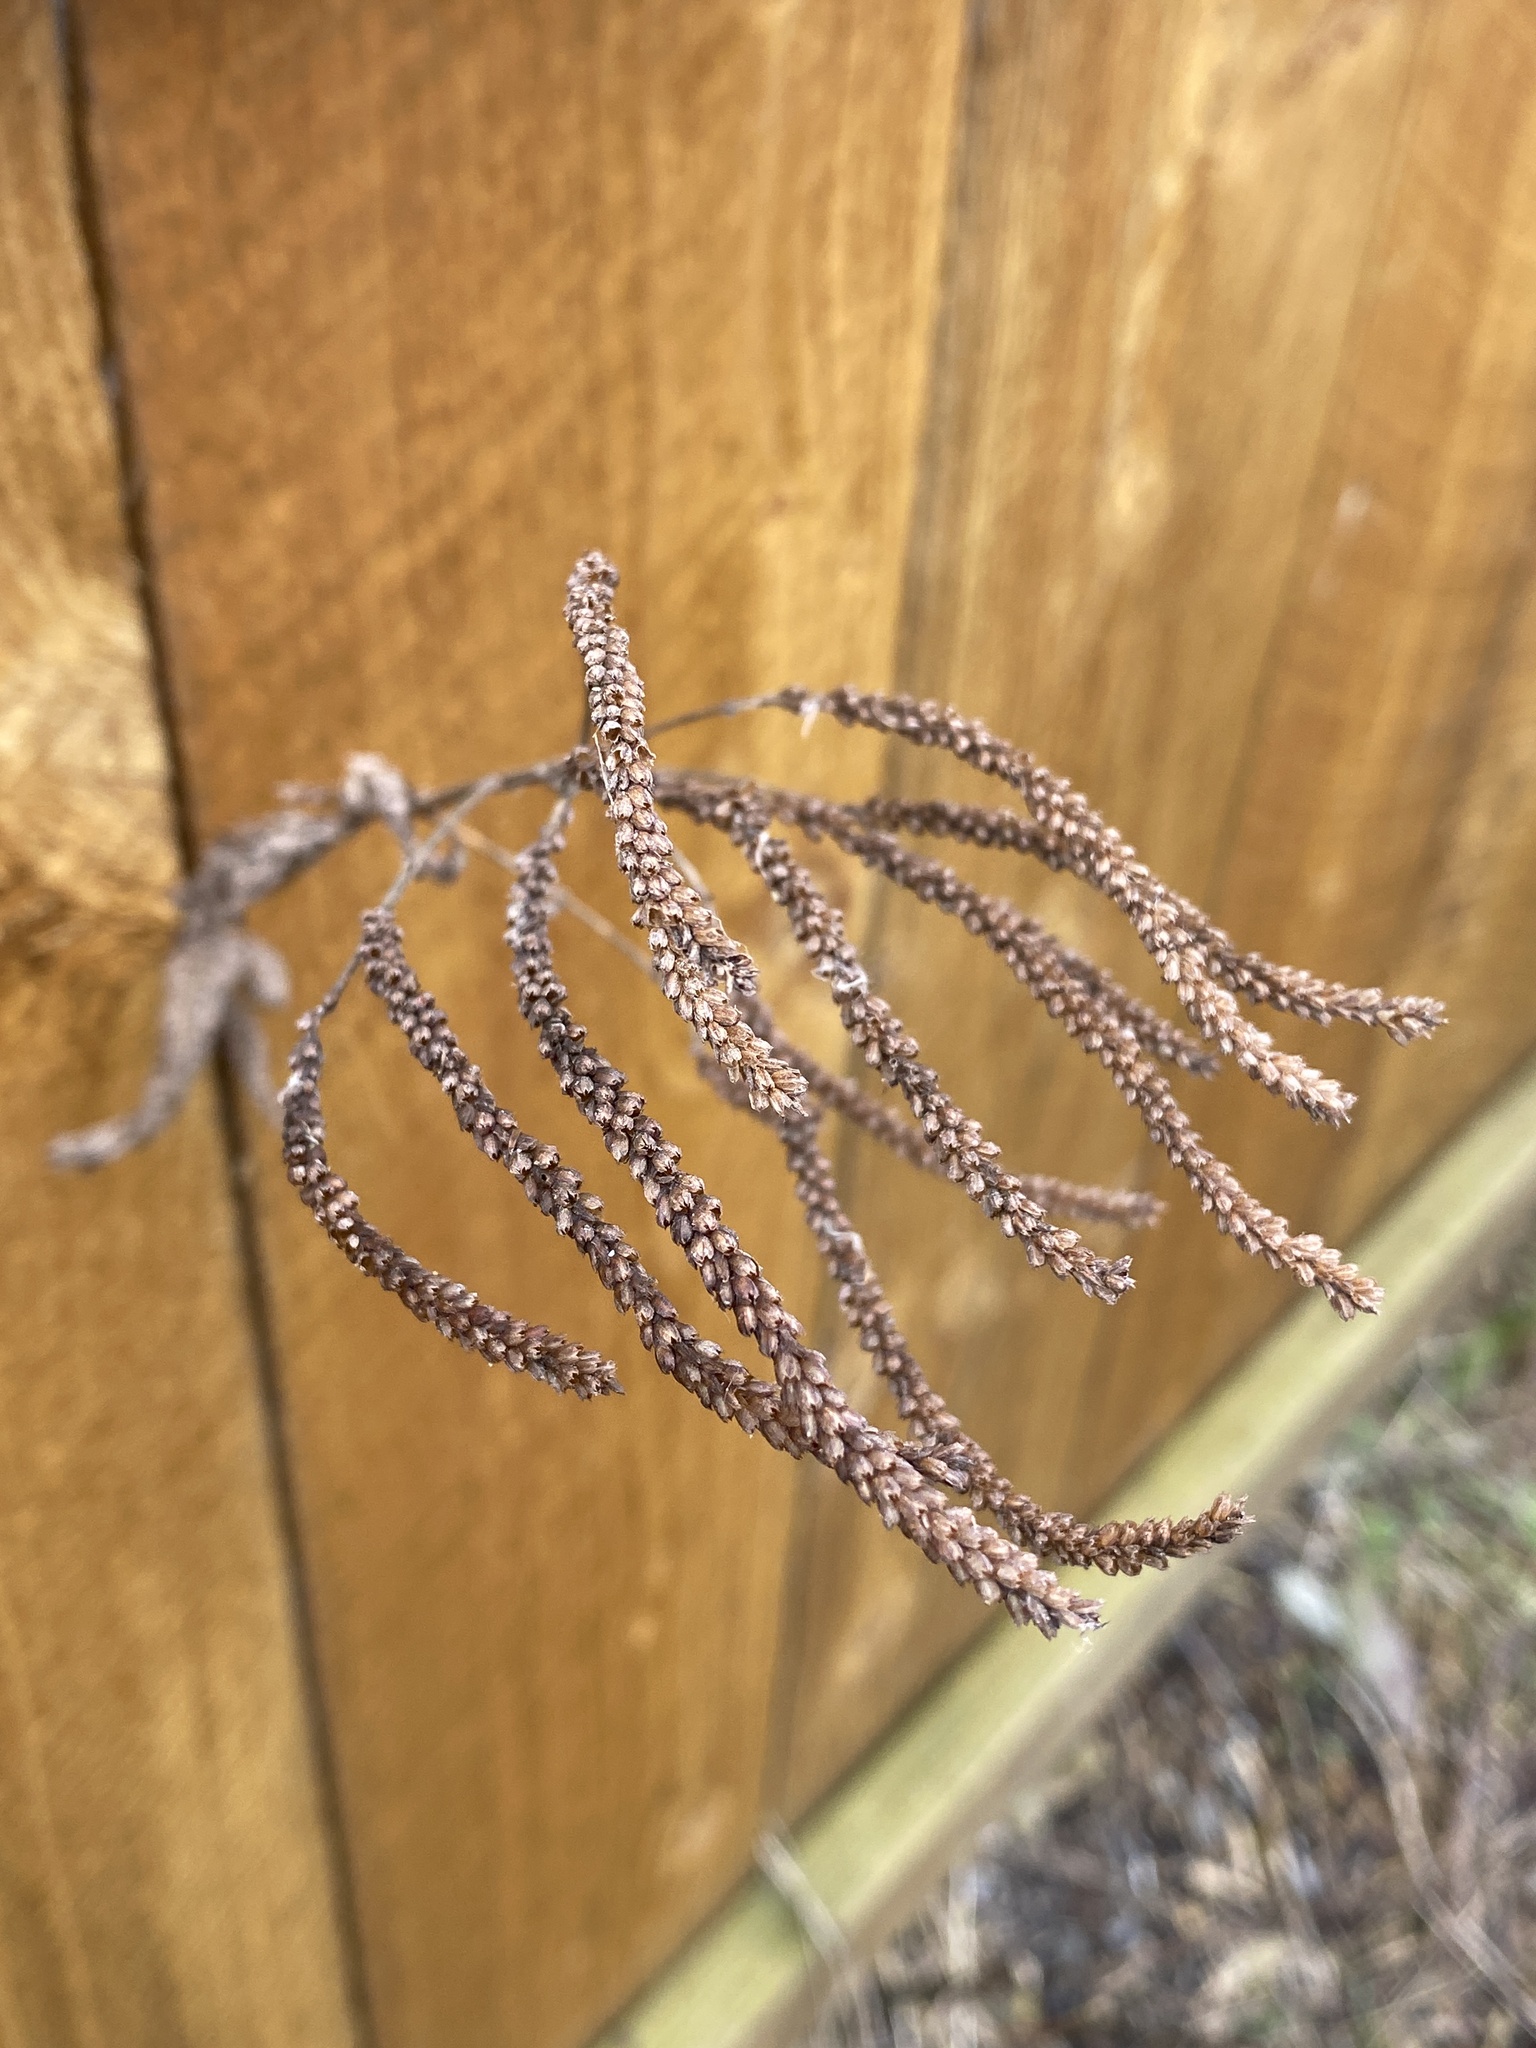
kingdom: Plantae
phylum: Tracheophyta
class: Magnoliopsida
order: Lamiales
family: Verbenaceae
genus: Verbena
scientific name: Verbena hastata
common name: American blue vervain
